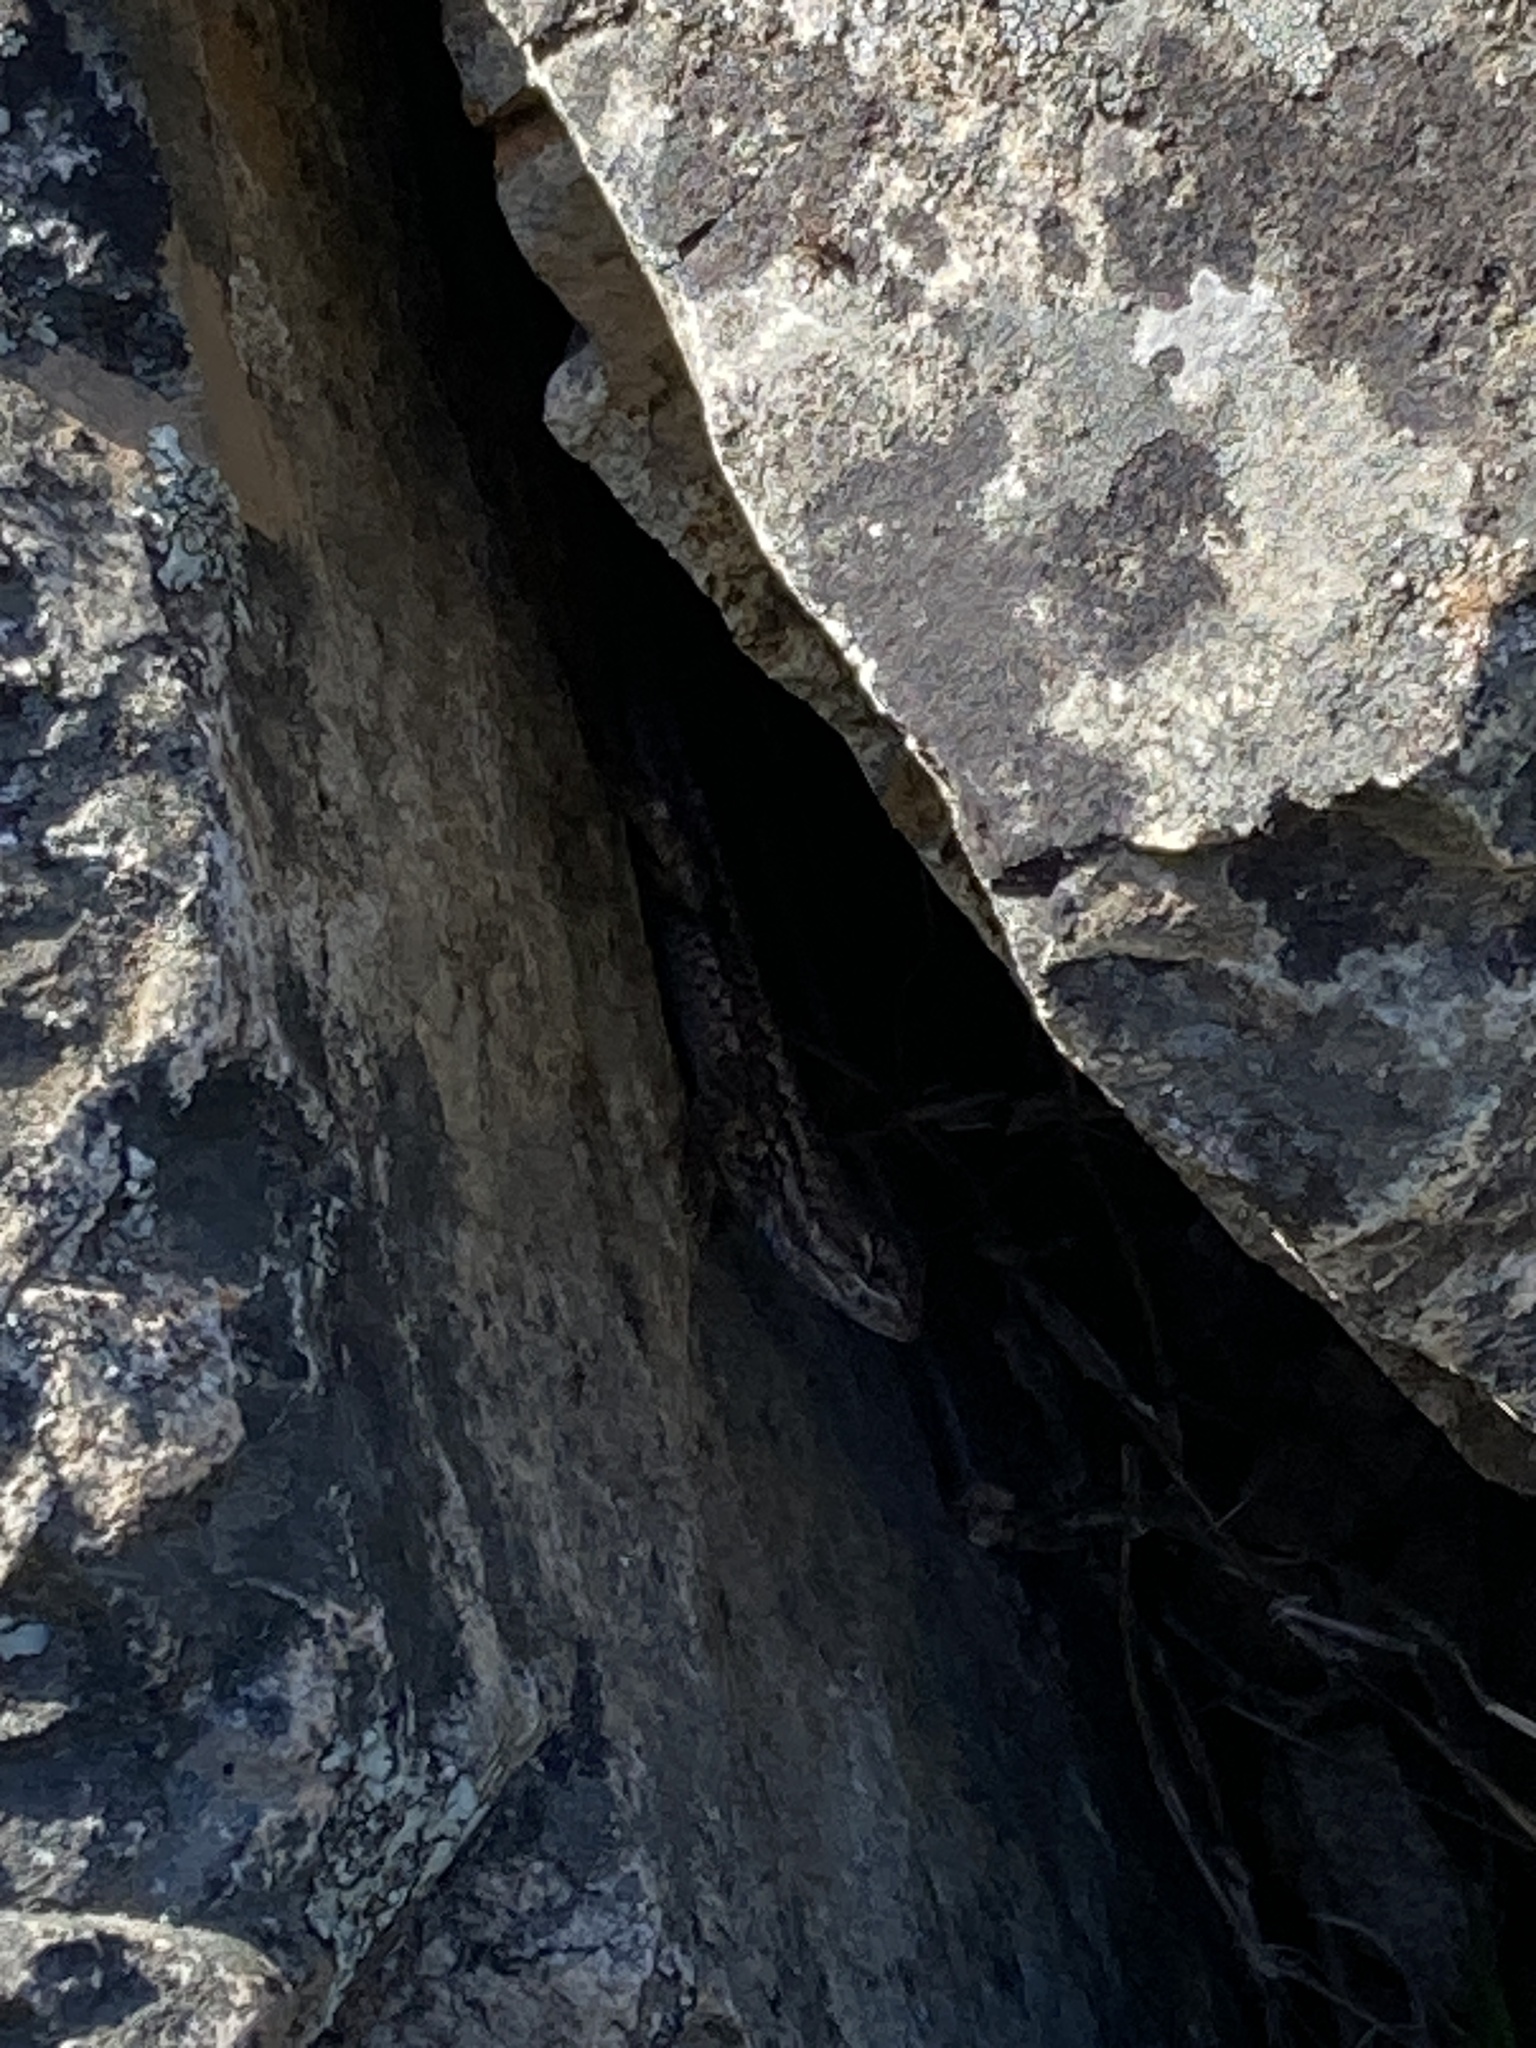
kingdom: Animalia
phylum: Chordata
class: Squamata
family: Phrynosomatidae
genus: Sceloporus
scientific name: Sceloporus occidentalis
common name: Western fence lizard
